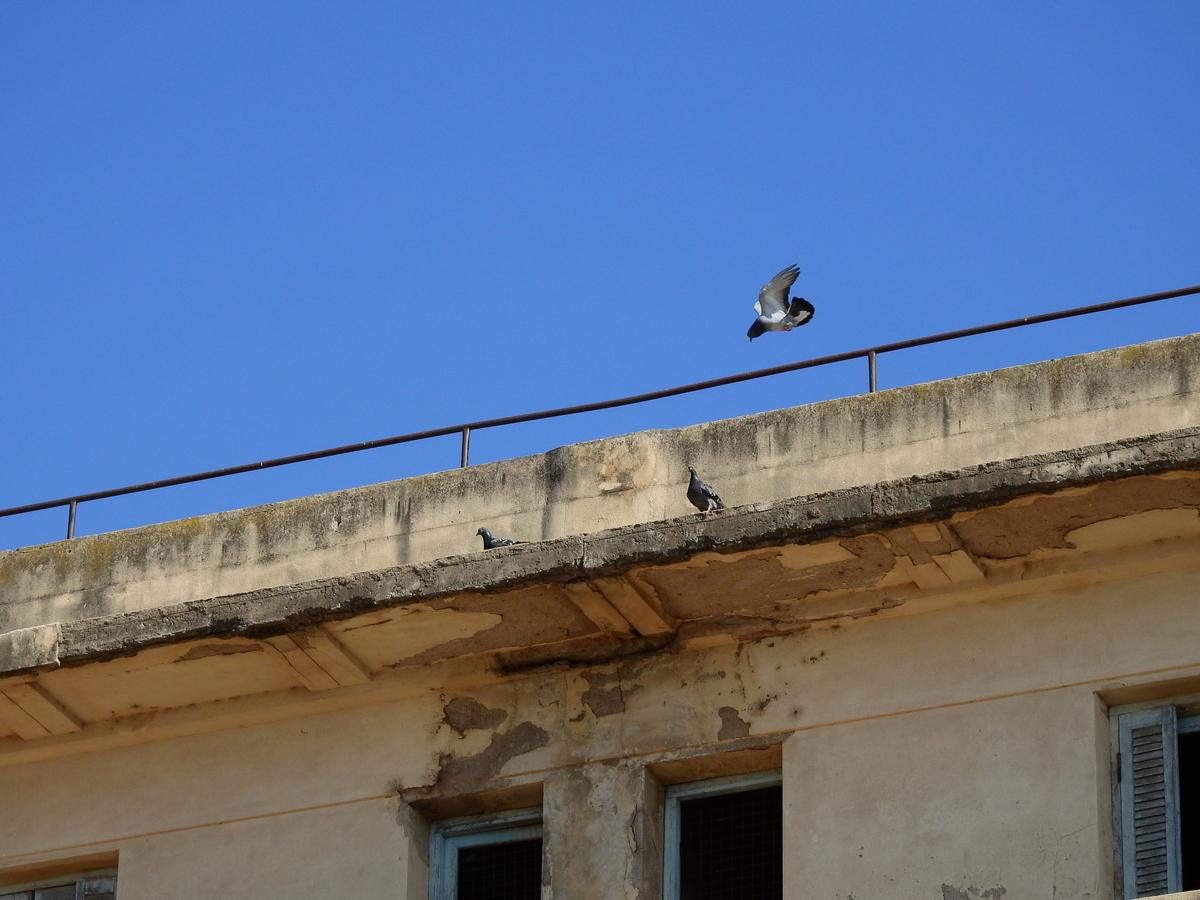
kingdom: Animalia
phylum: Chordata
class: Aves
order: Columbiformes
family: Columbidae
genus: Columba
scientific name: Columba livia
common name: Rock pigeon
